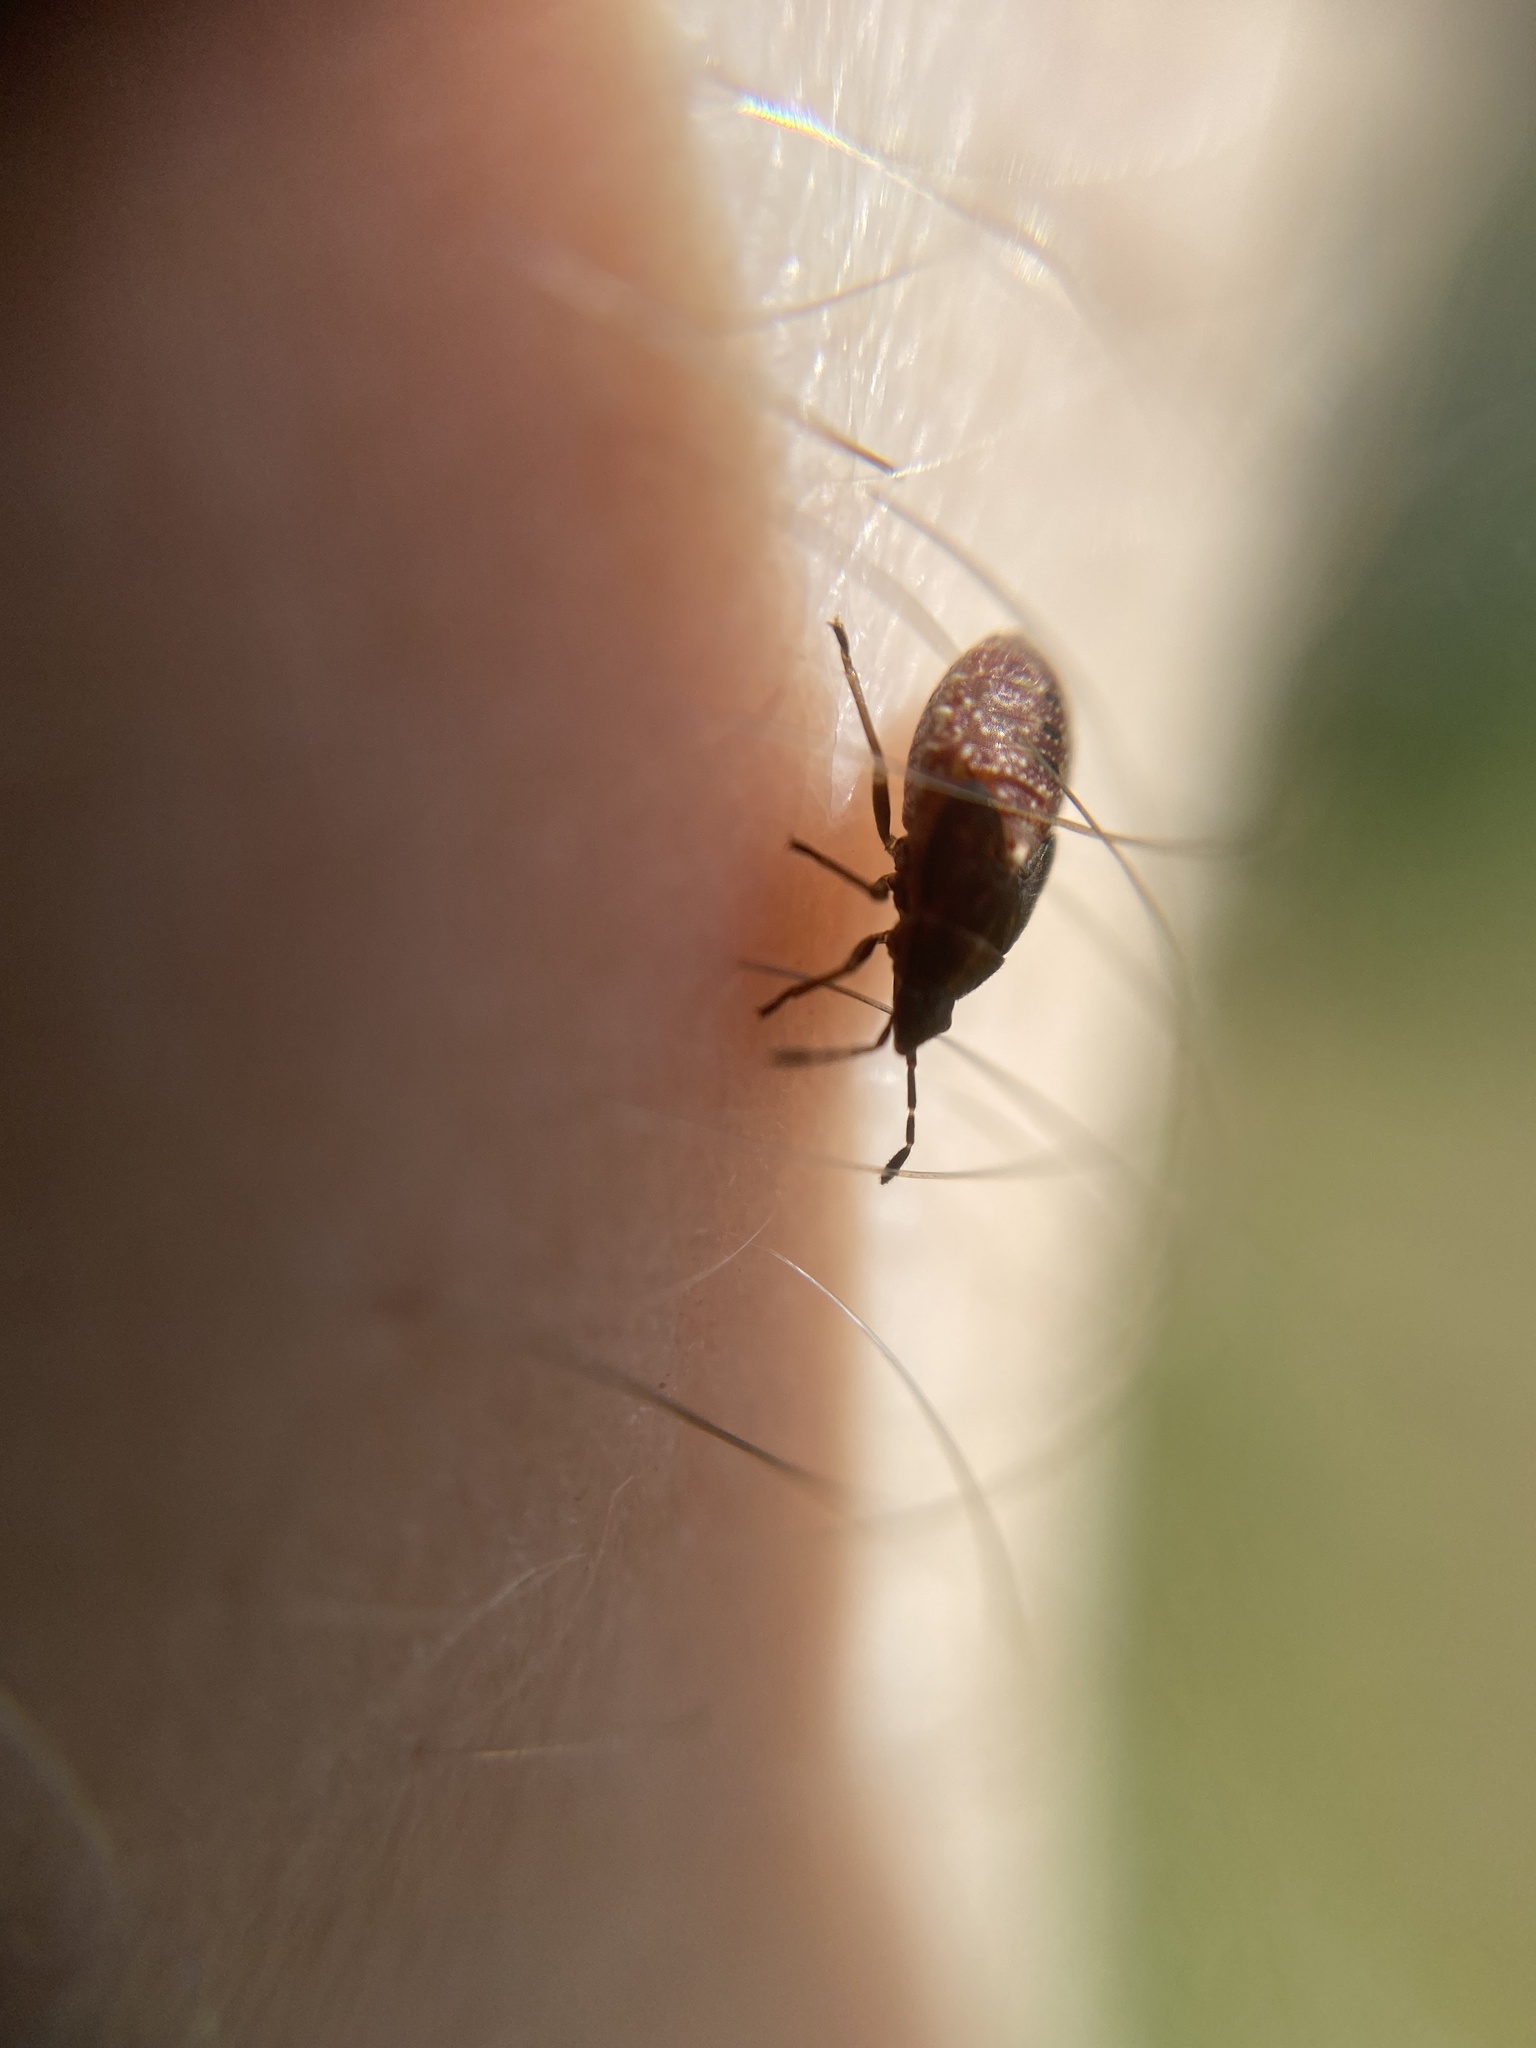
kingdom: Animalia
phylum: Arthropoda
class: Insecta
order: Hemiptera
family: Lygaeidae
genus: Kleidocerys
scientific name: Kleidocerys resedae
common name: Birch catkin bug
